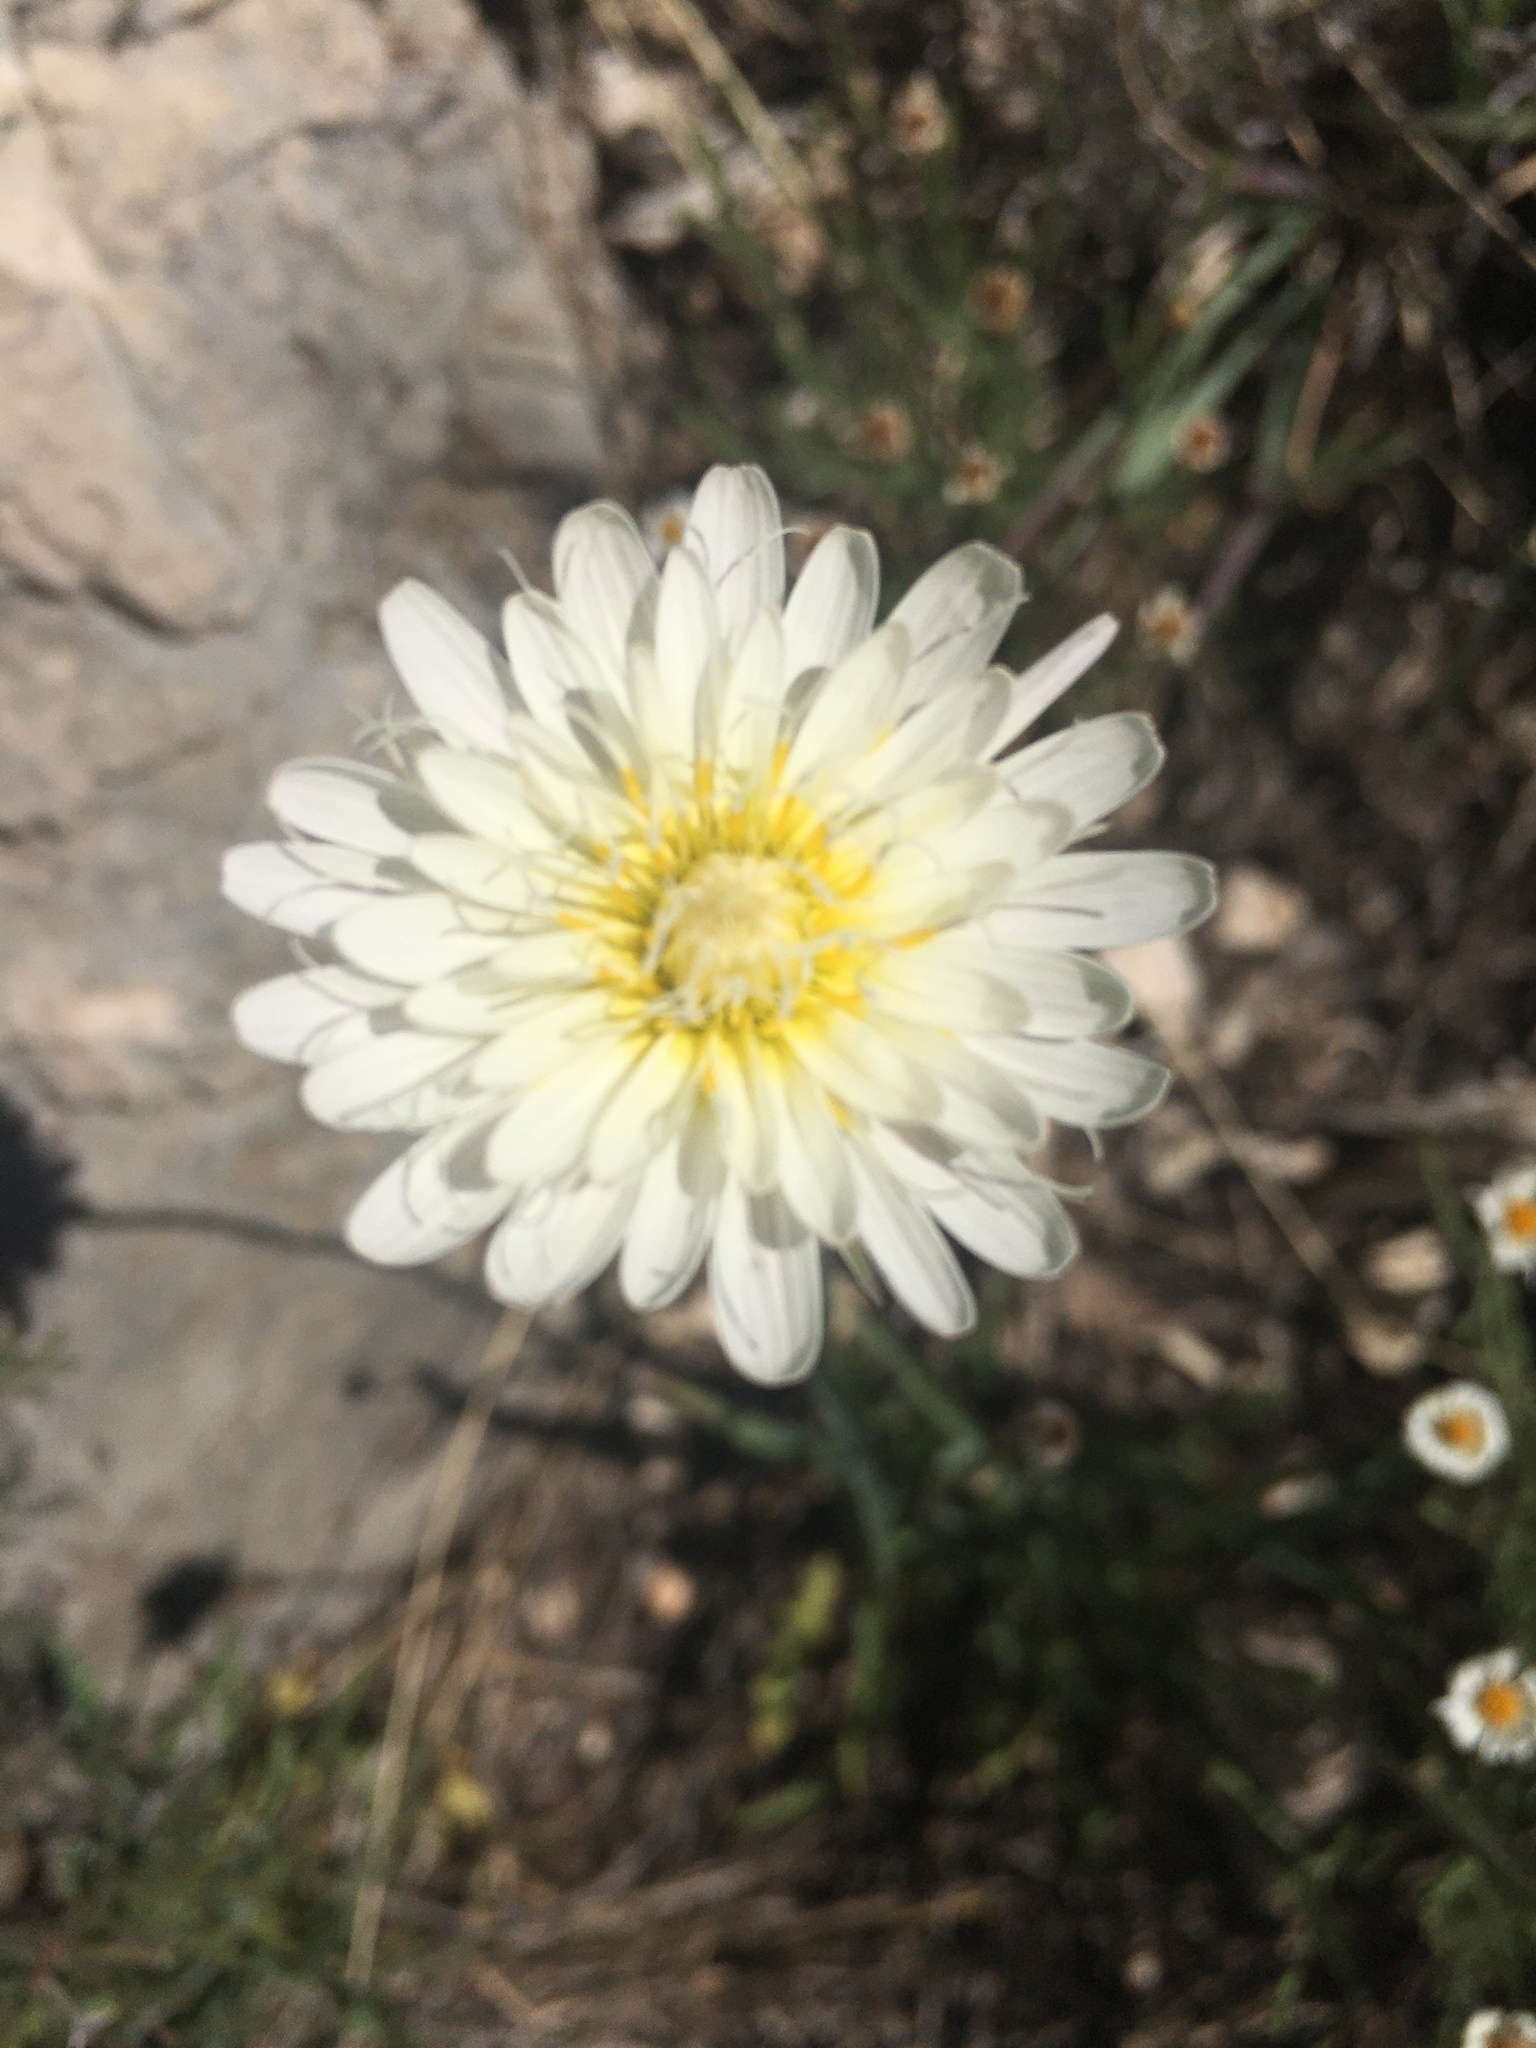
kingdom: Plantae
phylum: Tracheophyta
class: Magnoliopsida
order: Asterales
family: Asteraceae
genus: Pinaropappus
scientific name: Pinaropappus roseus
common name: Rock-lettuce
